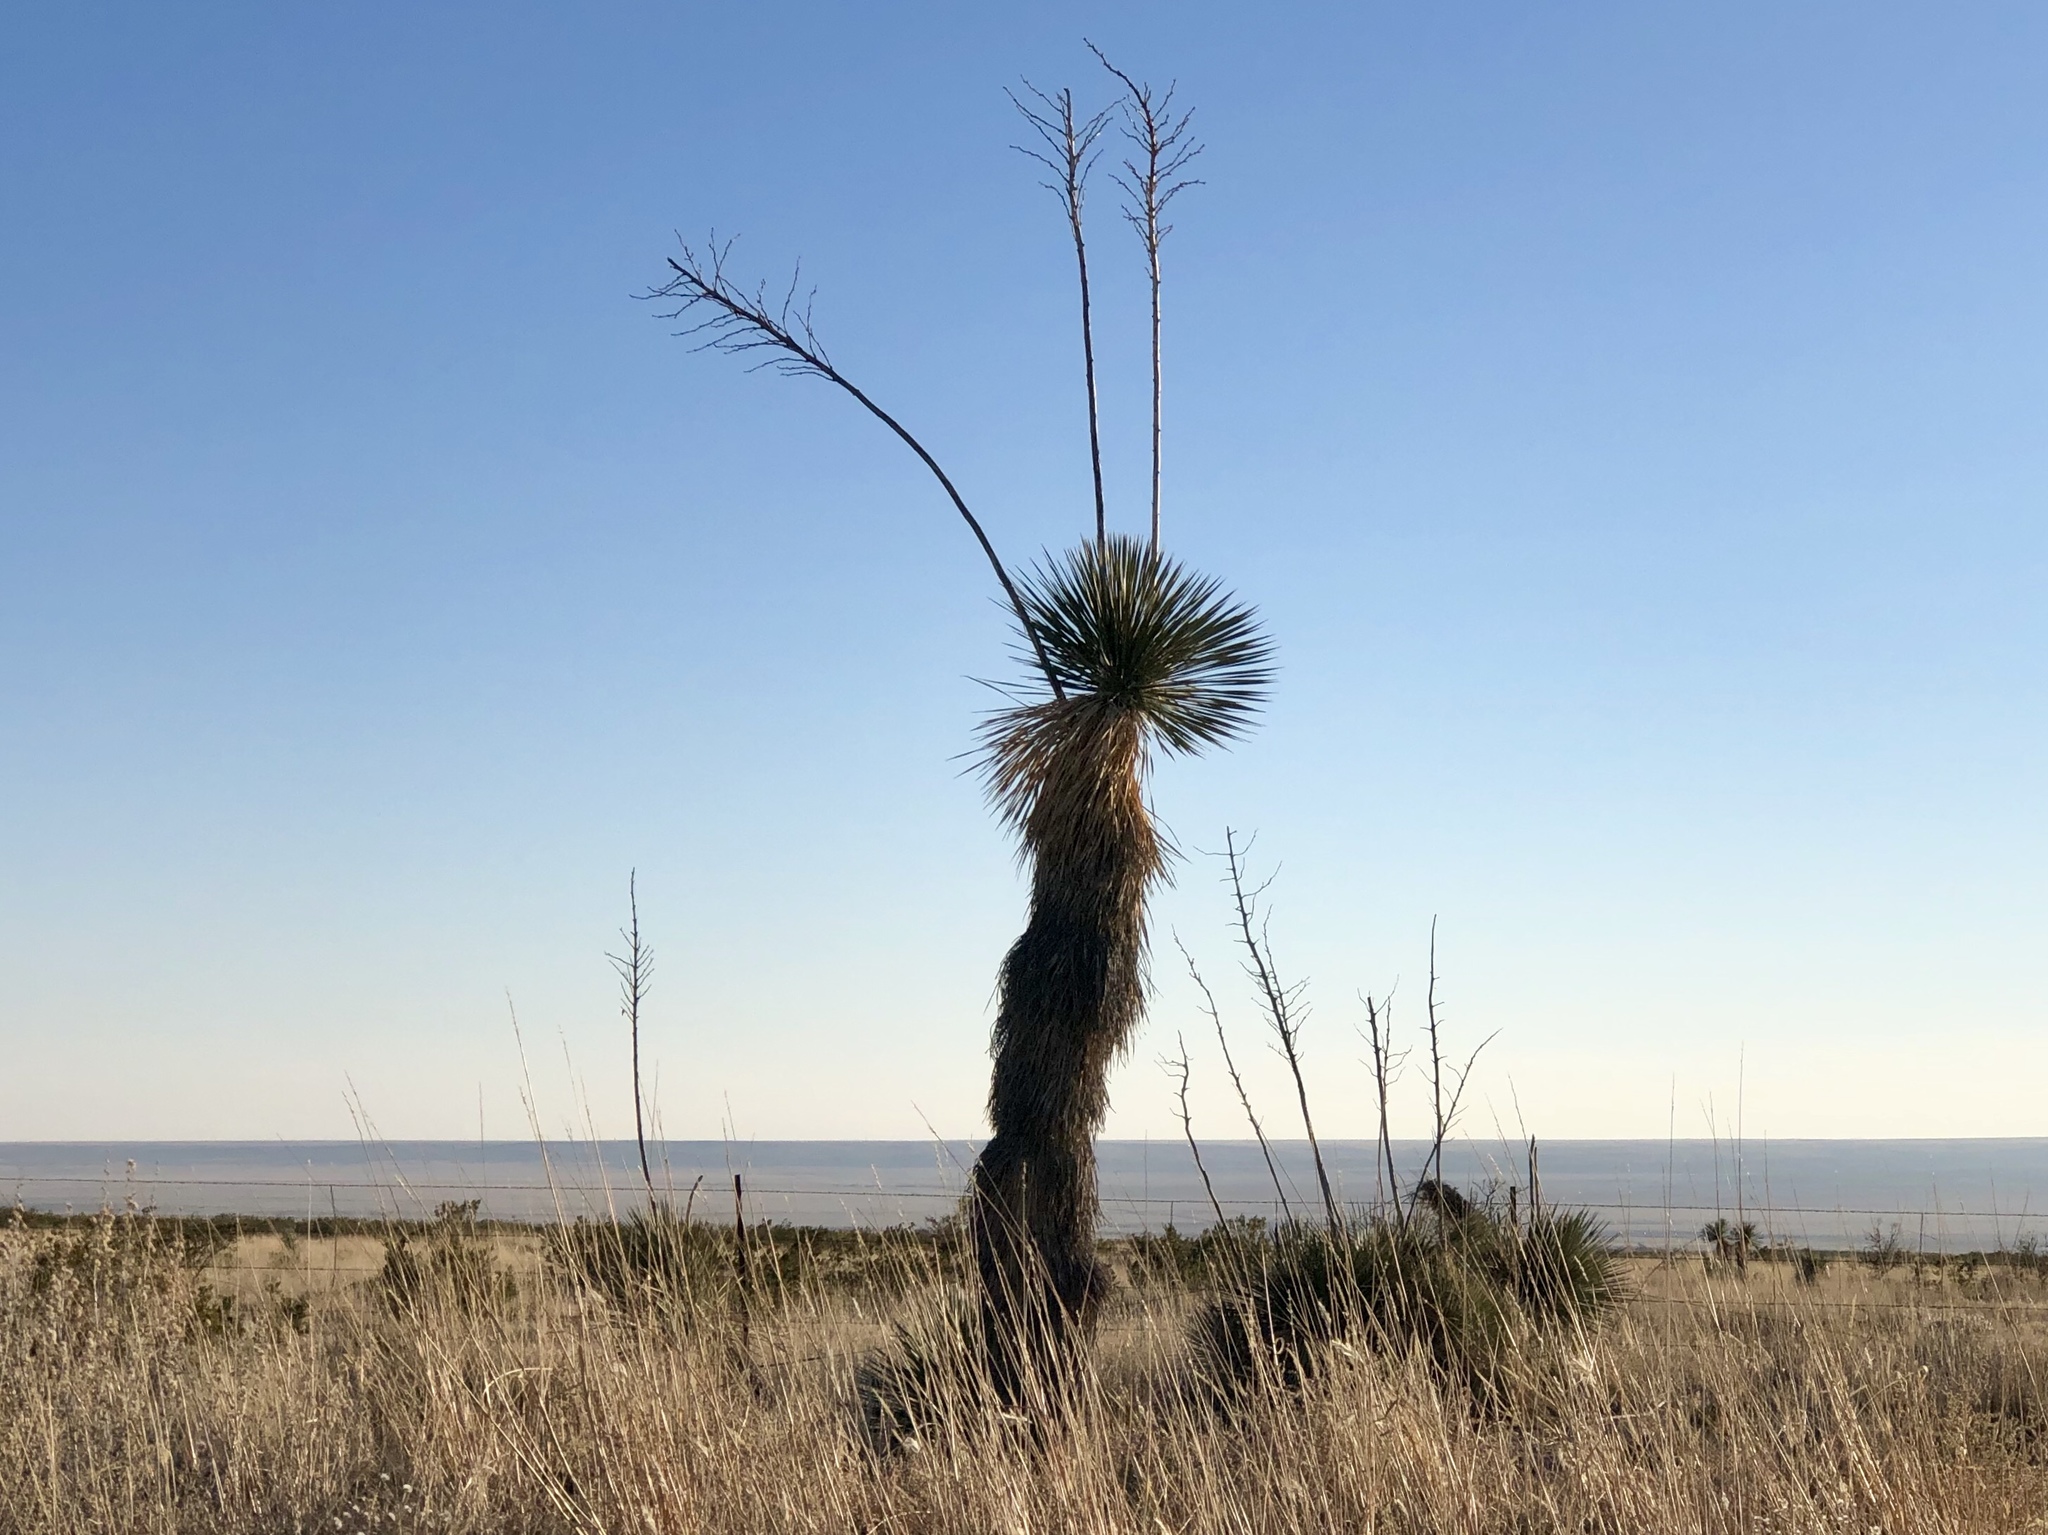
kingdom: Plantae
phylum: Tracheophyta
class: Liliopsida
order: Asparagales
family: Asparagaceae
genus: Yucca
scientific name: Yucca elata
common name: Palmella
